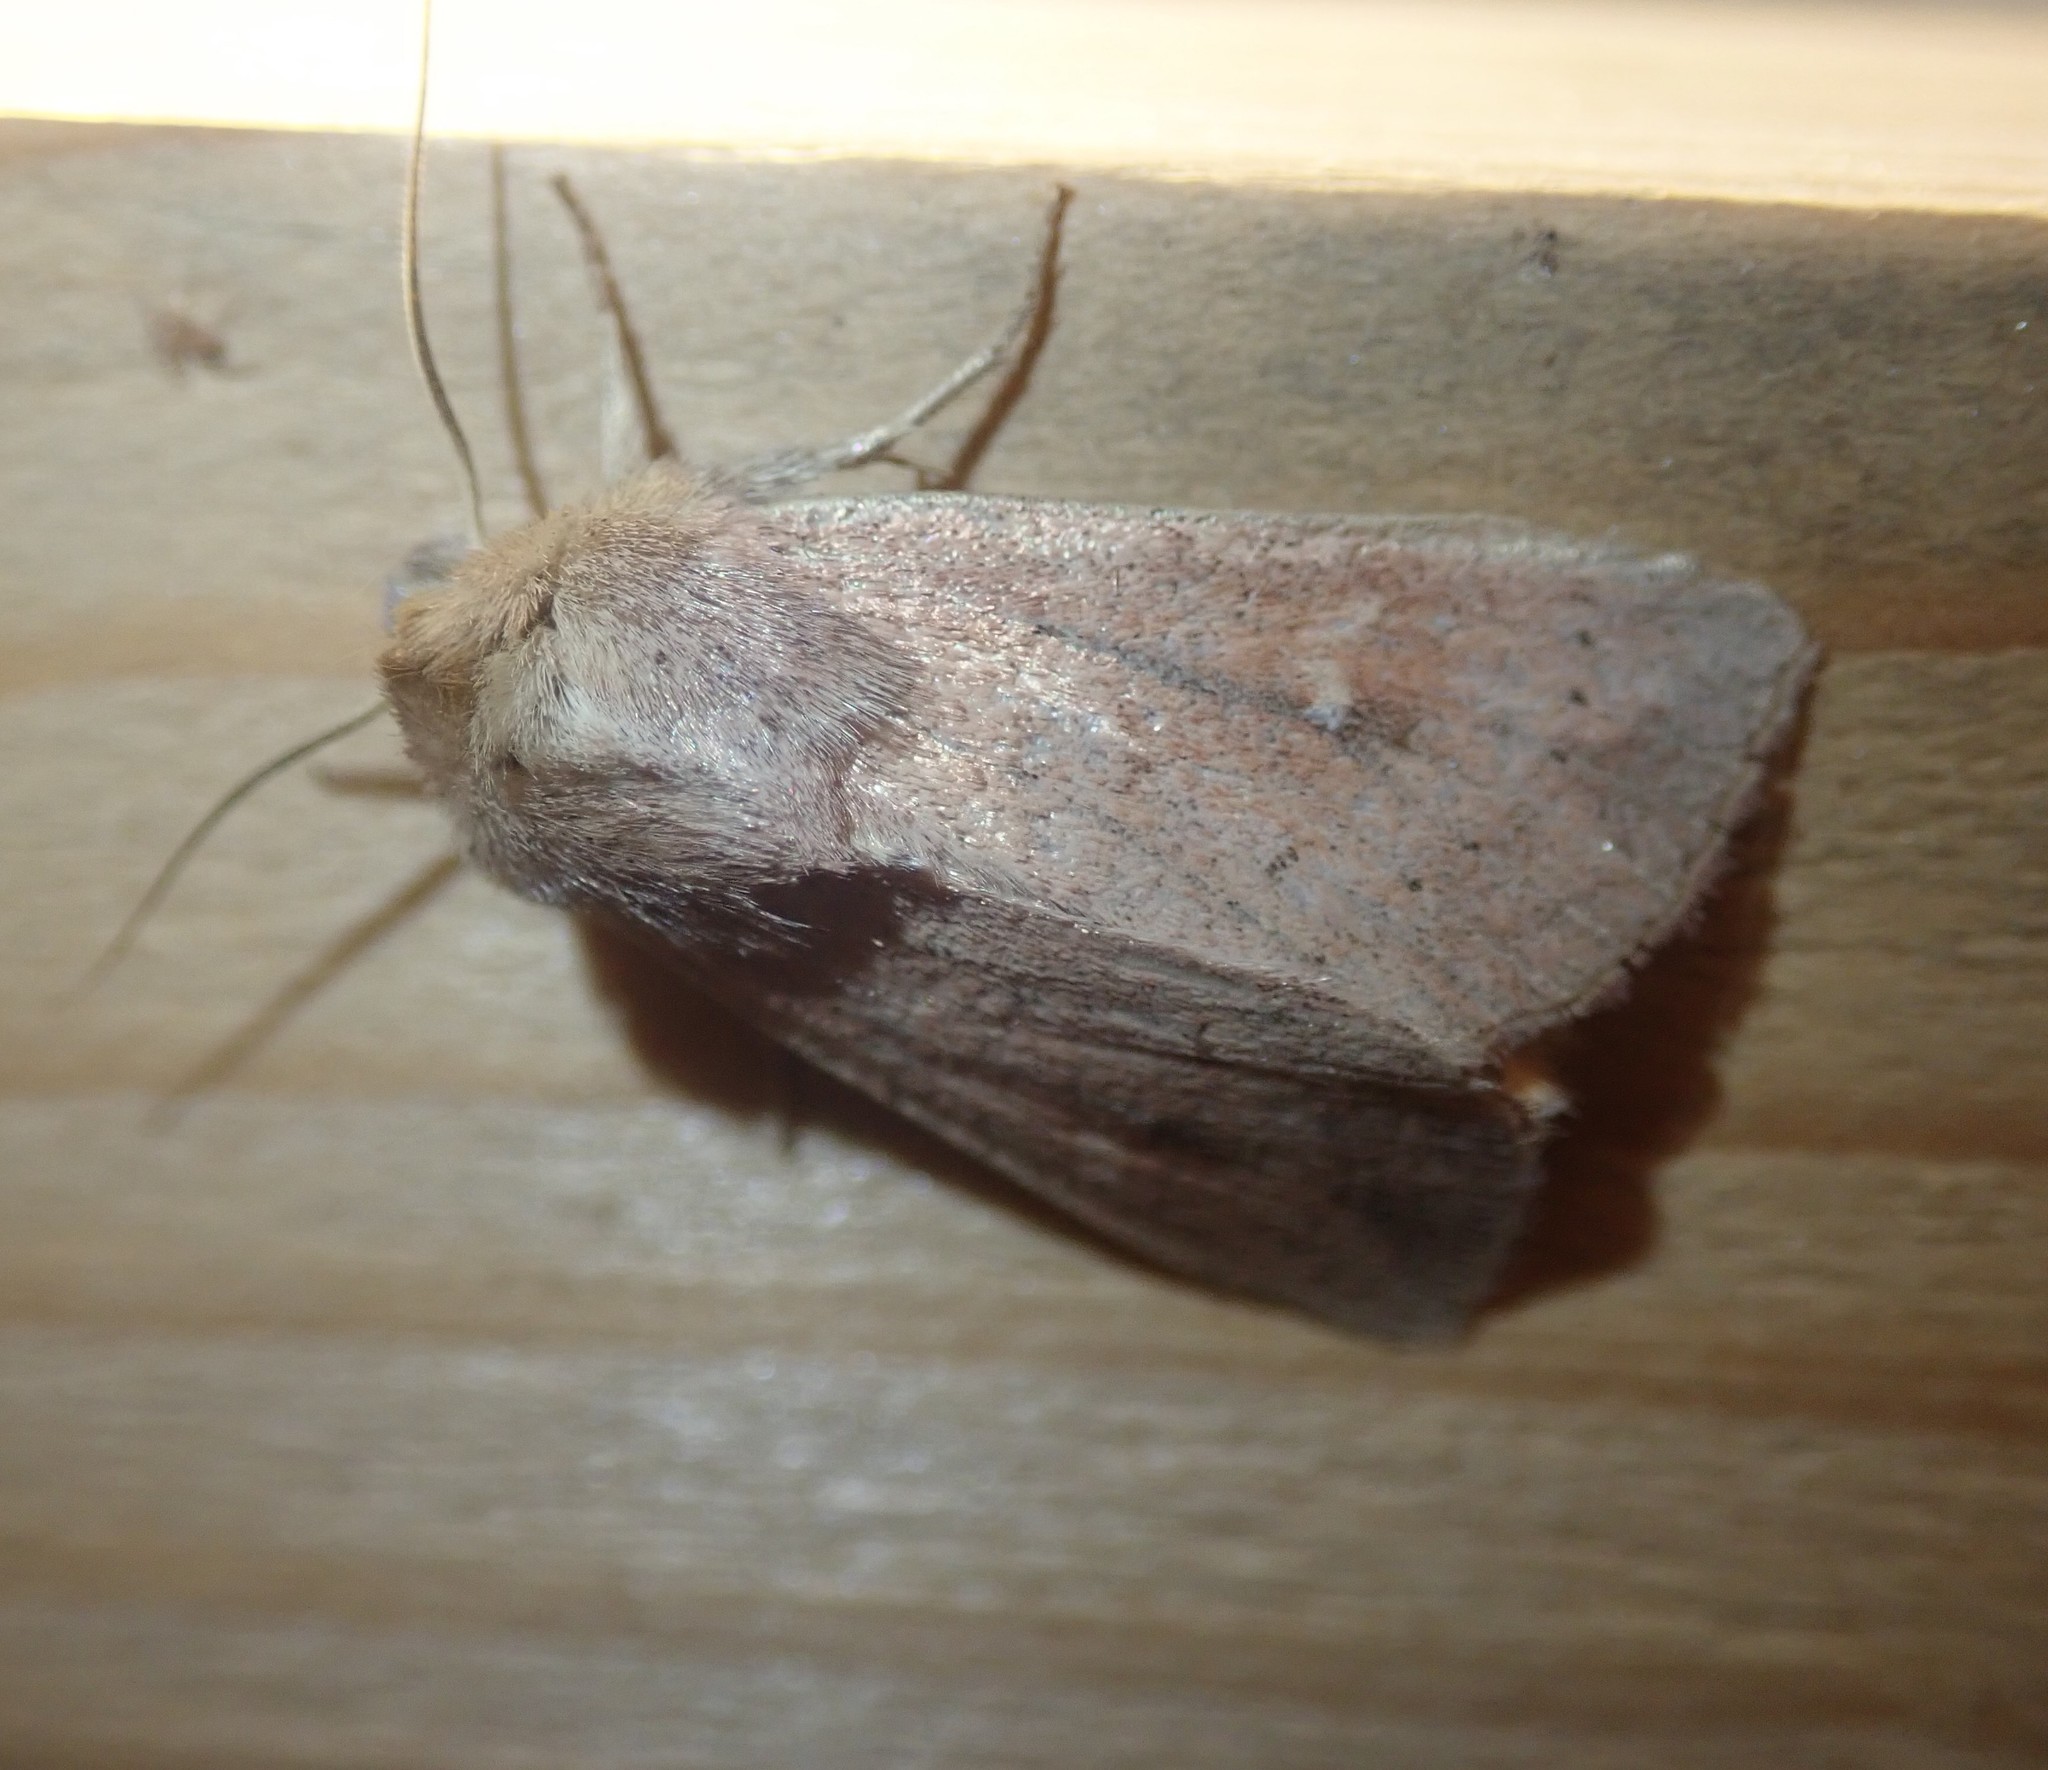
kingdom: Animalia
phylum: Arthropoda
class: Insecta
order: Lepidoptera
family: Noctuidae
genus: Mythimna
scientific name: Mythimna ferrago
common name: Clay
